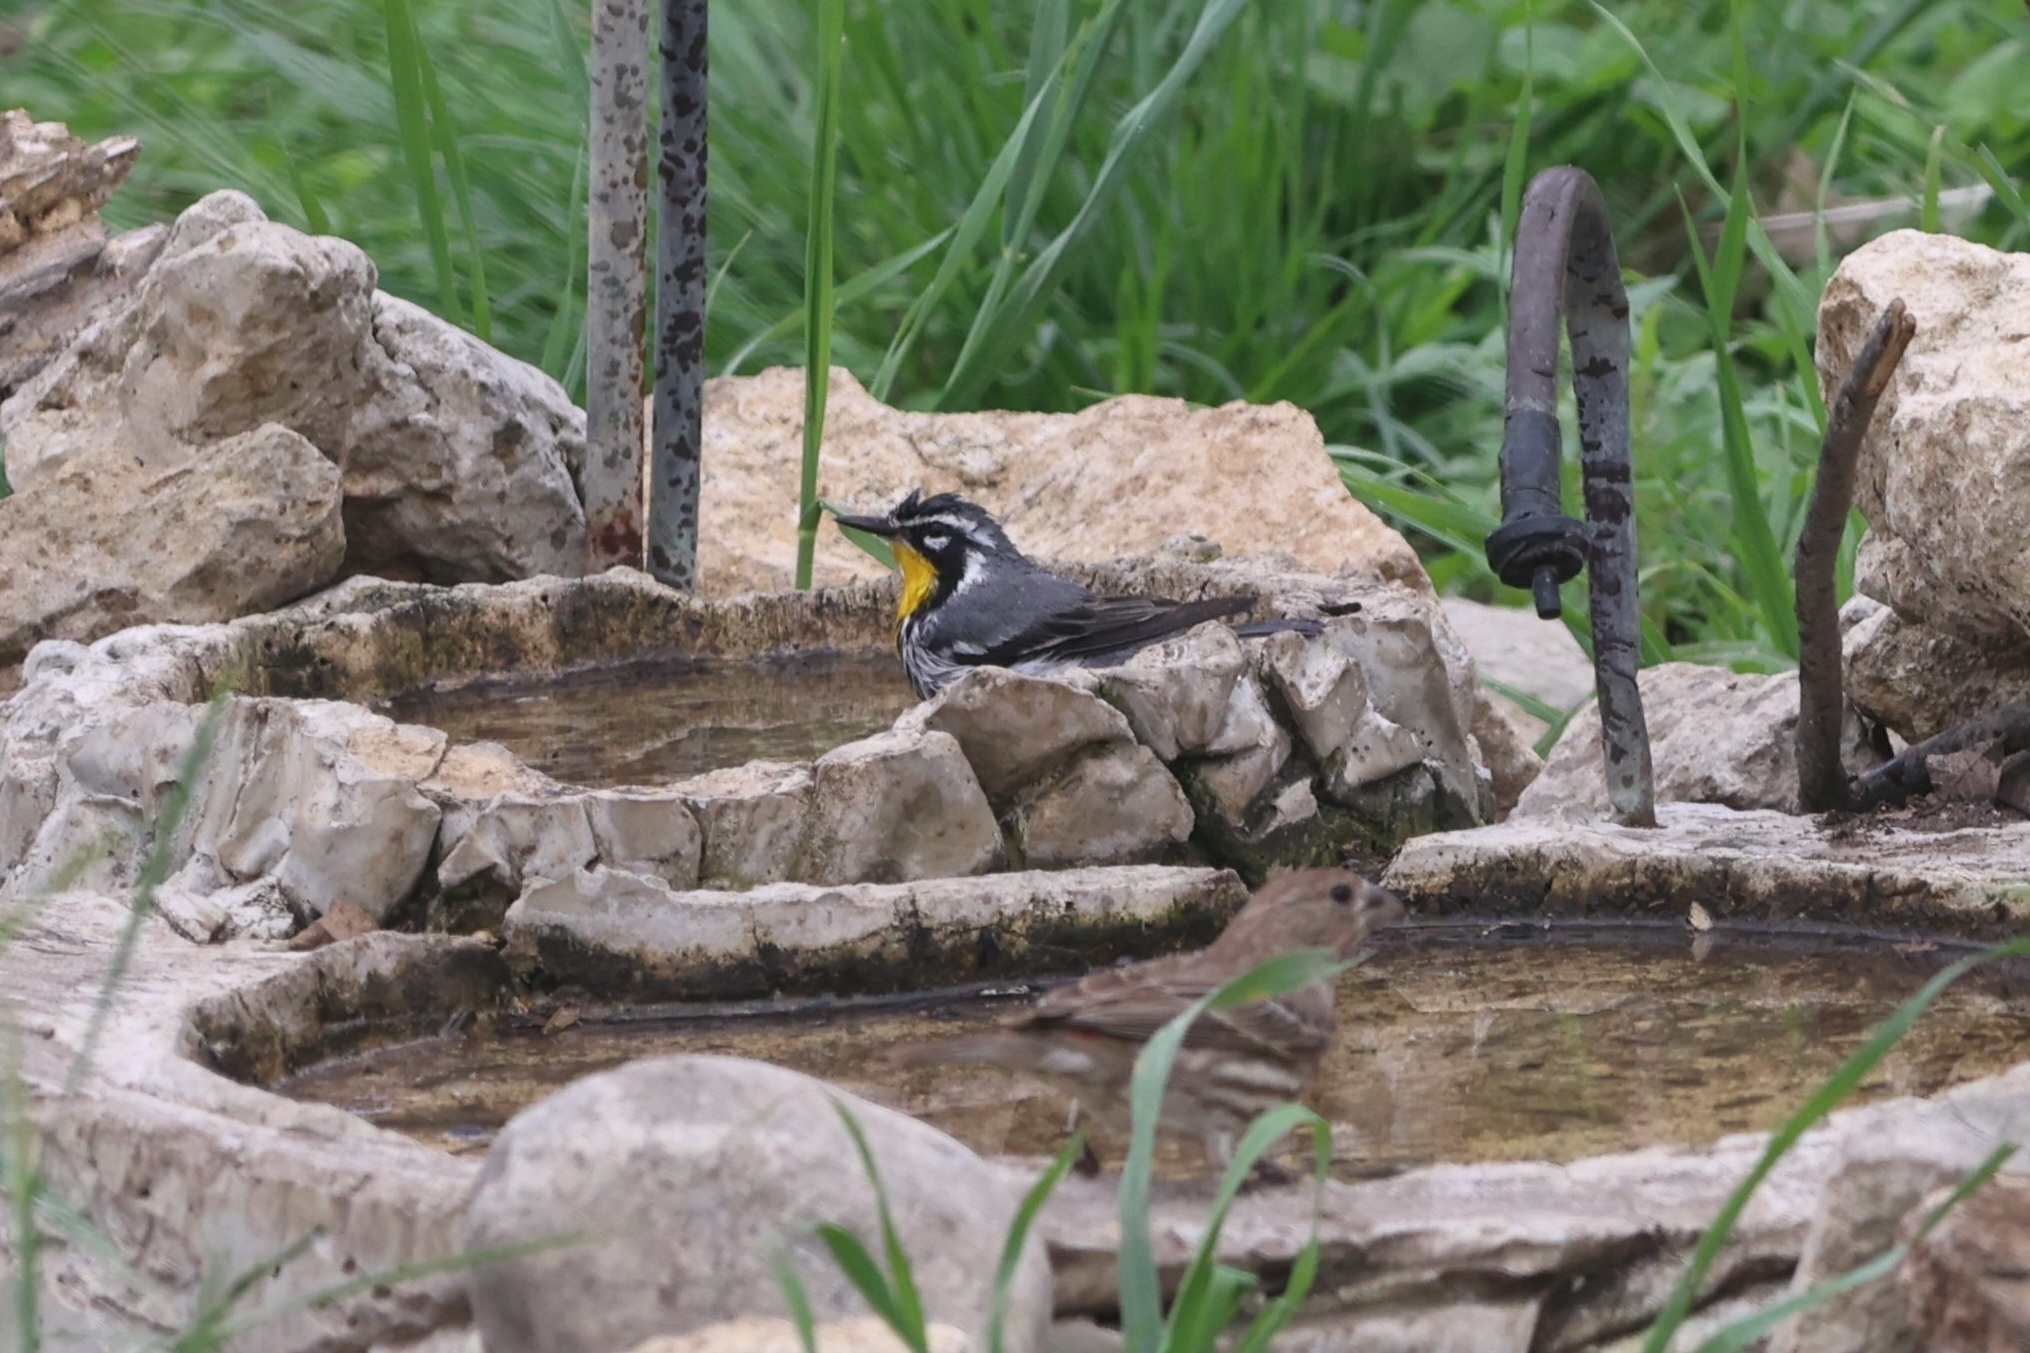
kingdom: Animalia
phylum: Chordata
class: Aves
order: Passeriformes
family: Parulidae
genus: Setophaga
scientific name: Setophaga dominica
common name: Yellow-throated warbler
